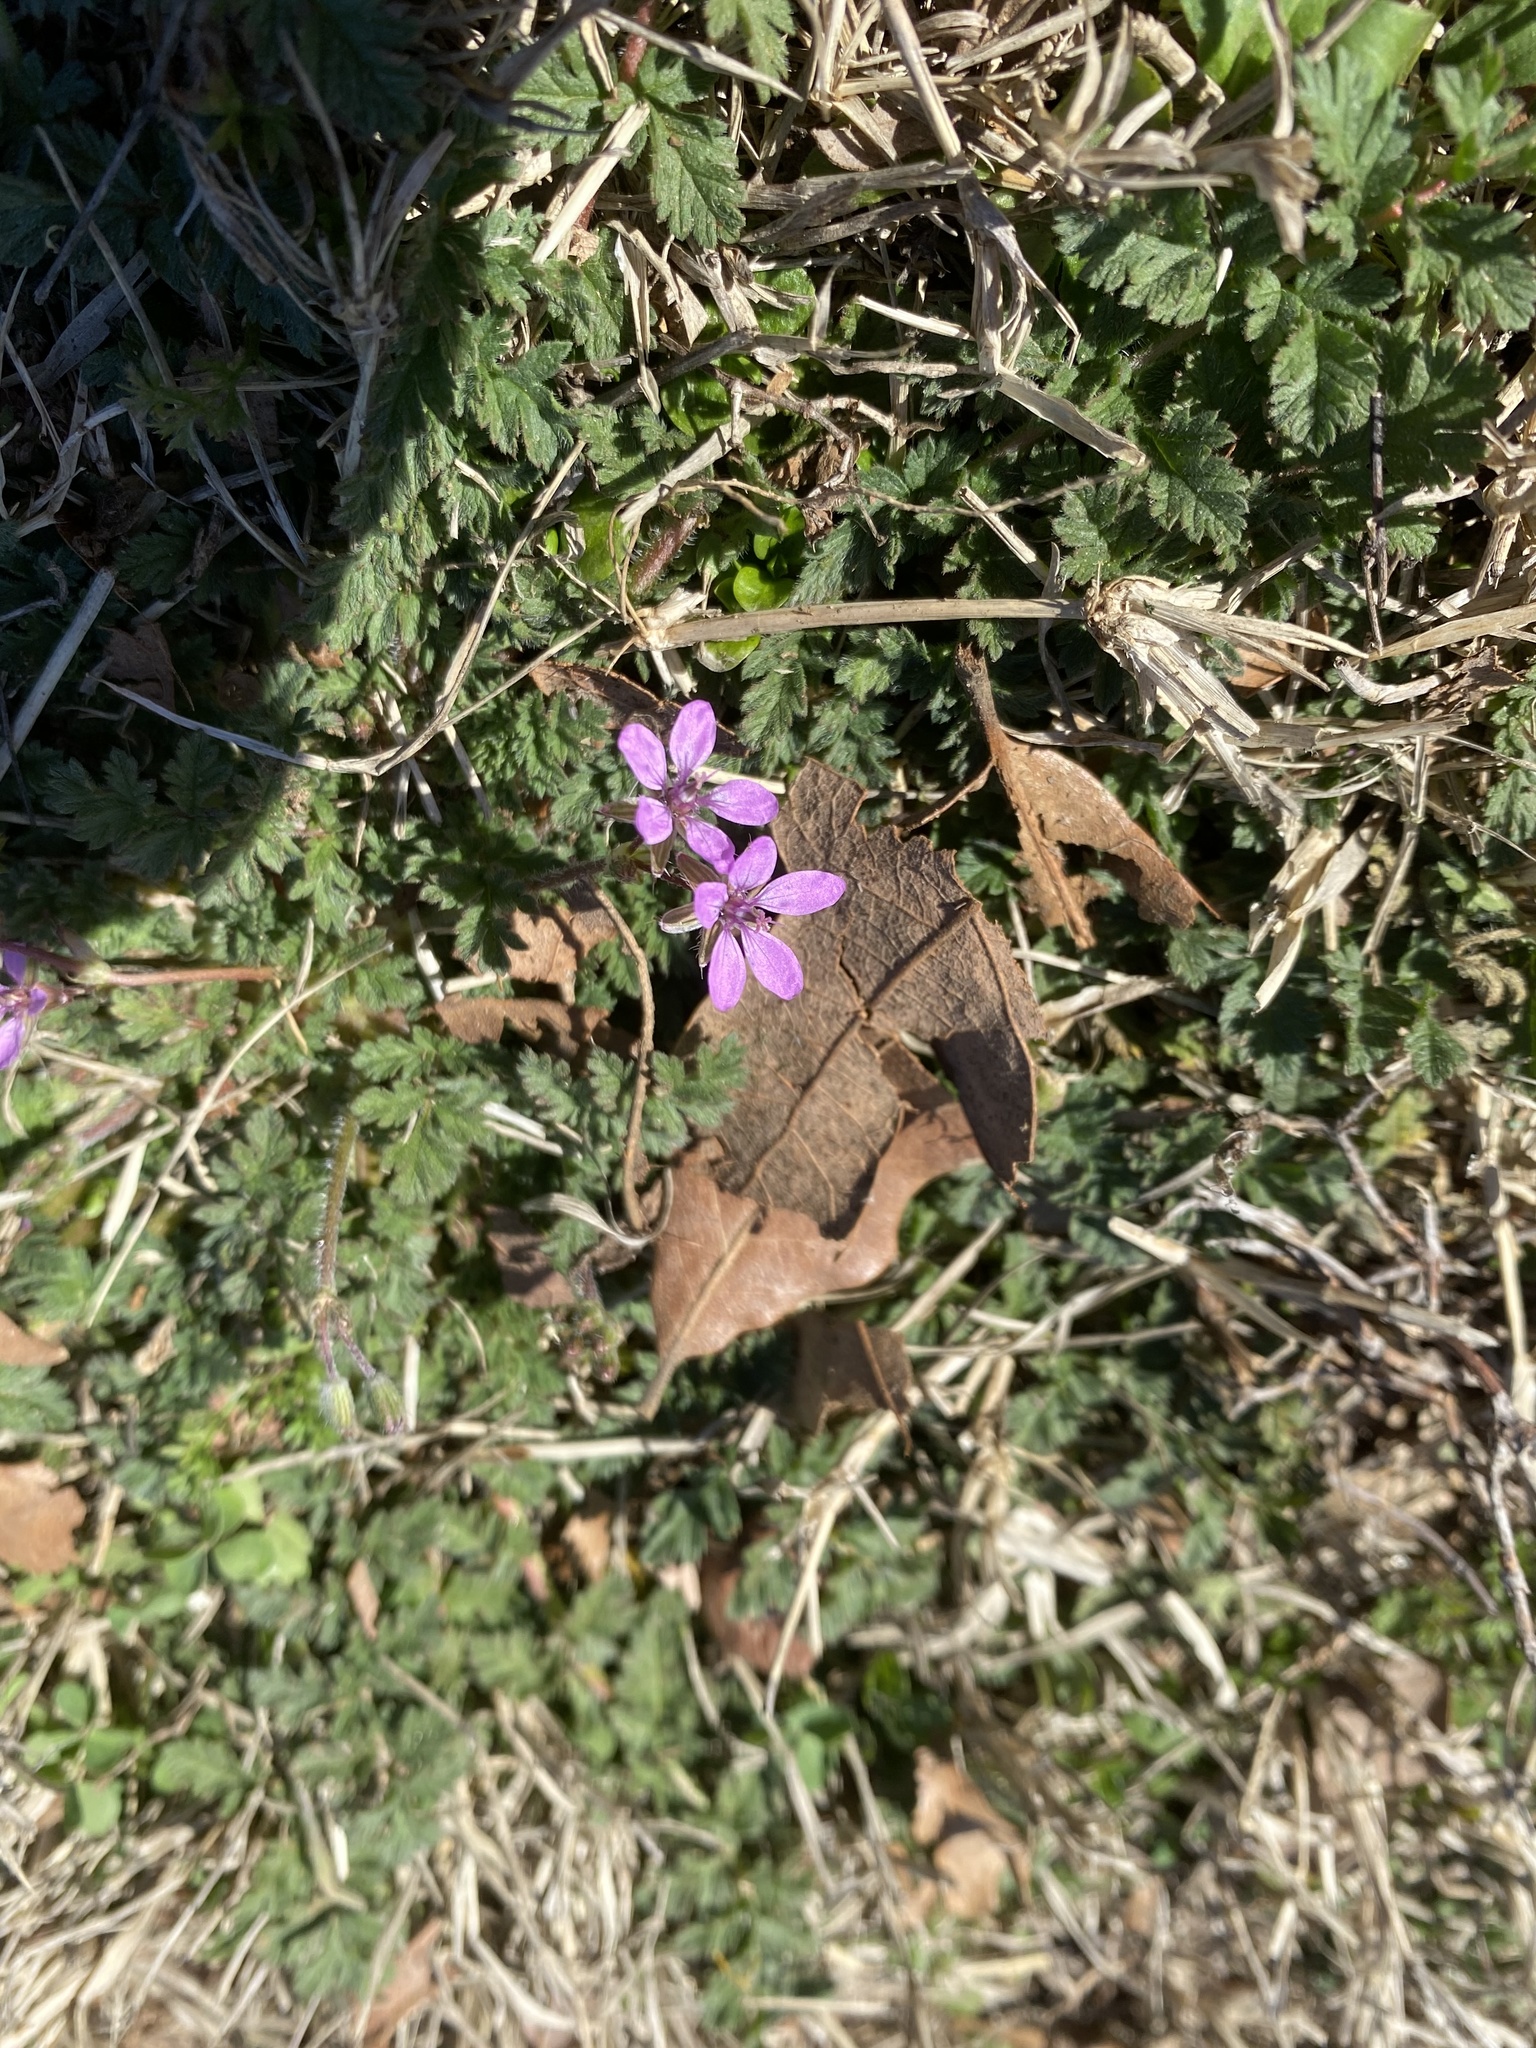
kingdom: Plantae
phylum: Tracheophyta
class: Magnoliopsida
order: Geraniales
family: Geraniaceae
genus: Erodium
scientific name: Erodium cicutarium
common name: Common stork's-bill
